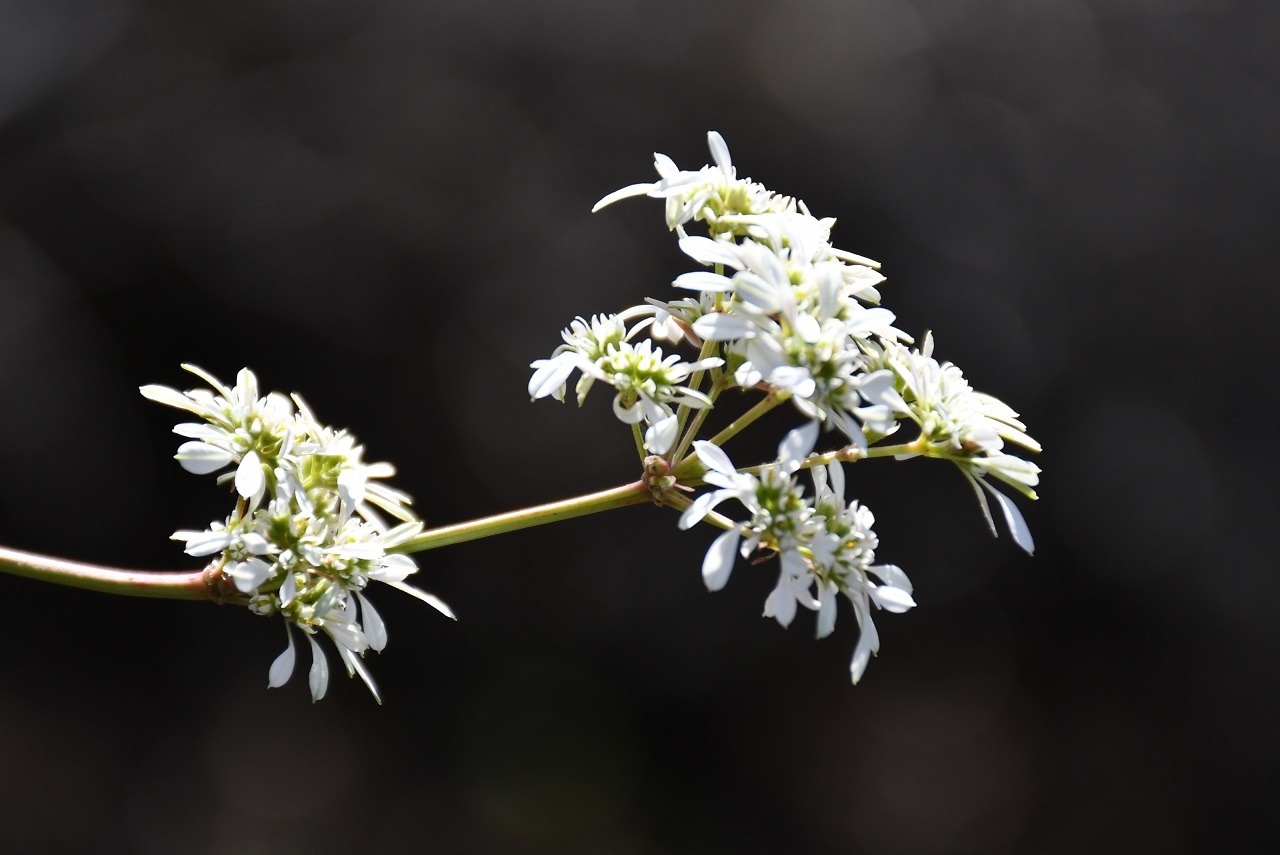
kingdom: Plantae
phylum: Tracheophyta
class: Magnoliopsida
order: Malpighiales
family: Euphorbiaceae
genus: Euphorbia
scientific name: Euphorbia leucocephala
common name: Pascuita
